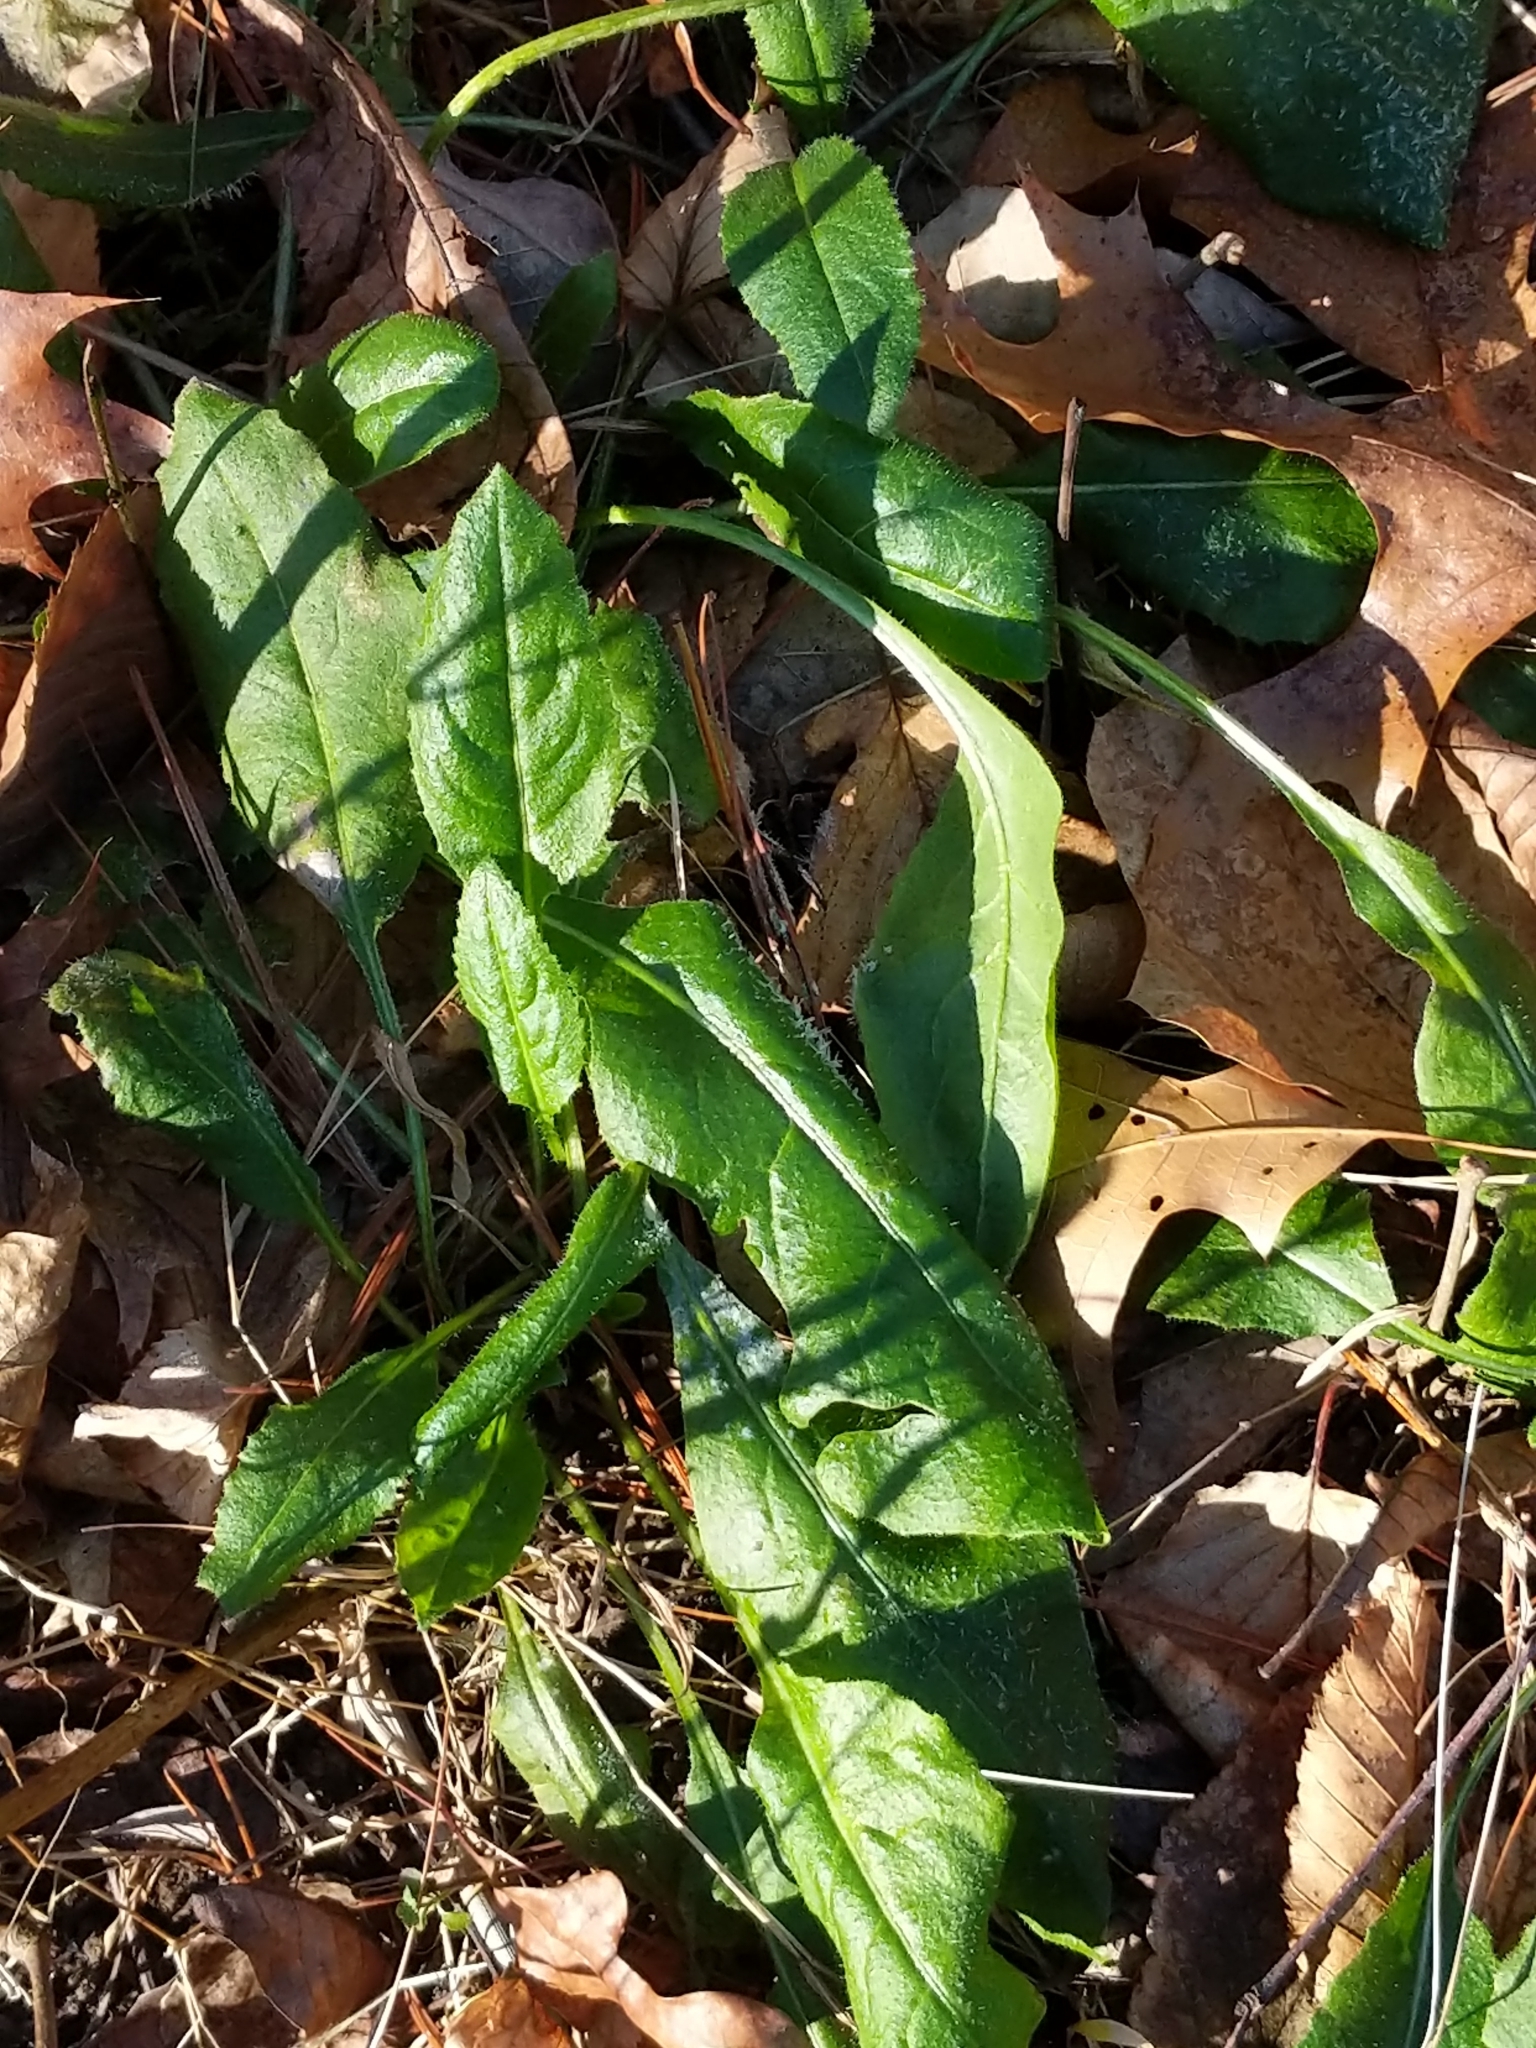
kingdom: Plantae
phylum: Tracheophyta
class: Magnoliopsida
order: Brassicales
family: Brassicaceae
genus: Hesperis
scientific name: Hesperis matronalis
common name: Dame's-violet
